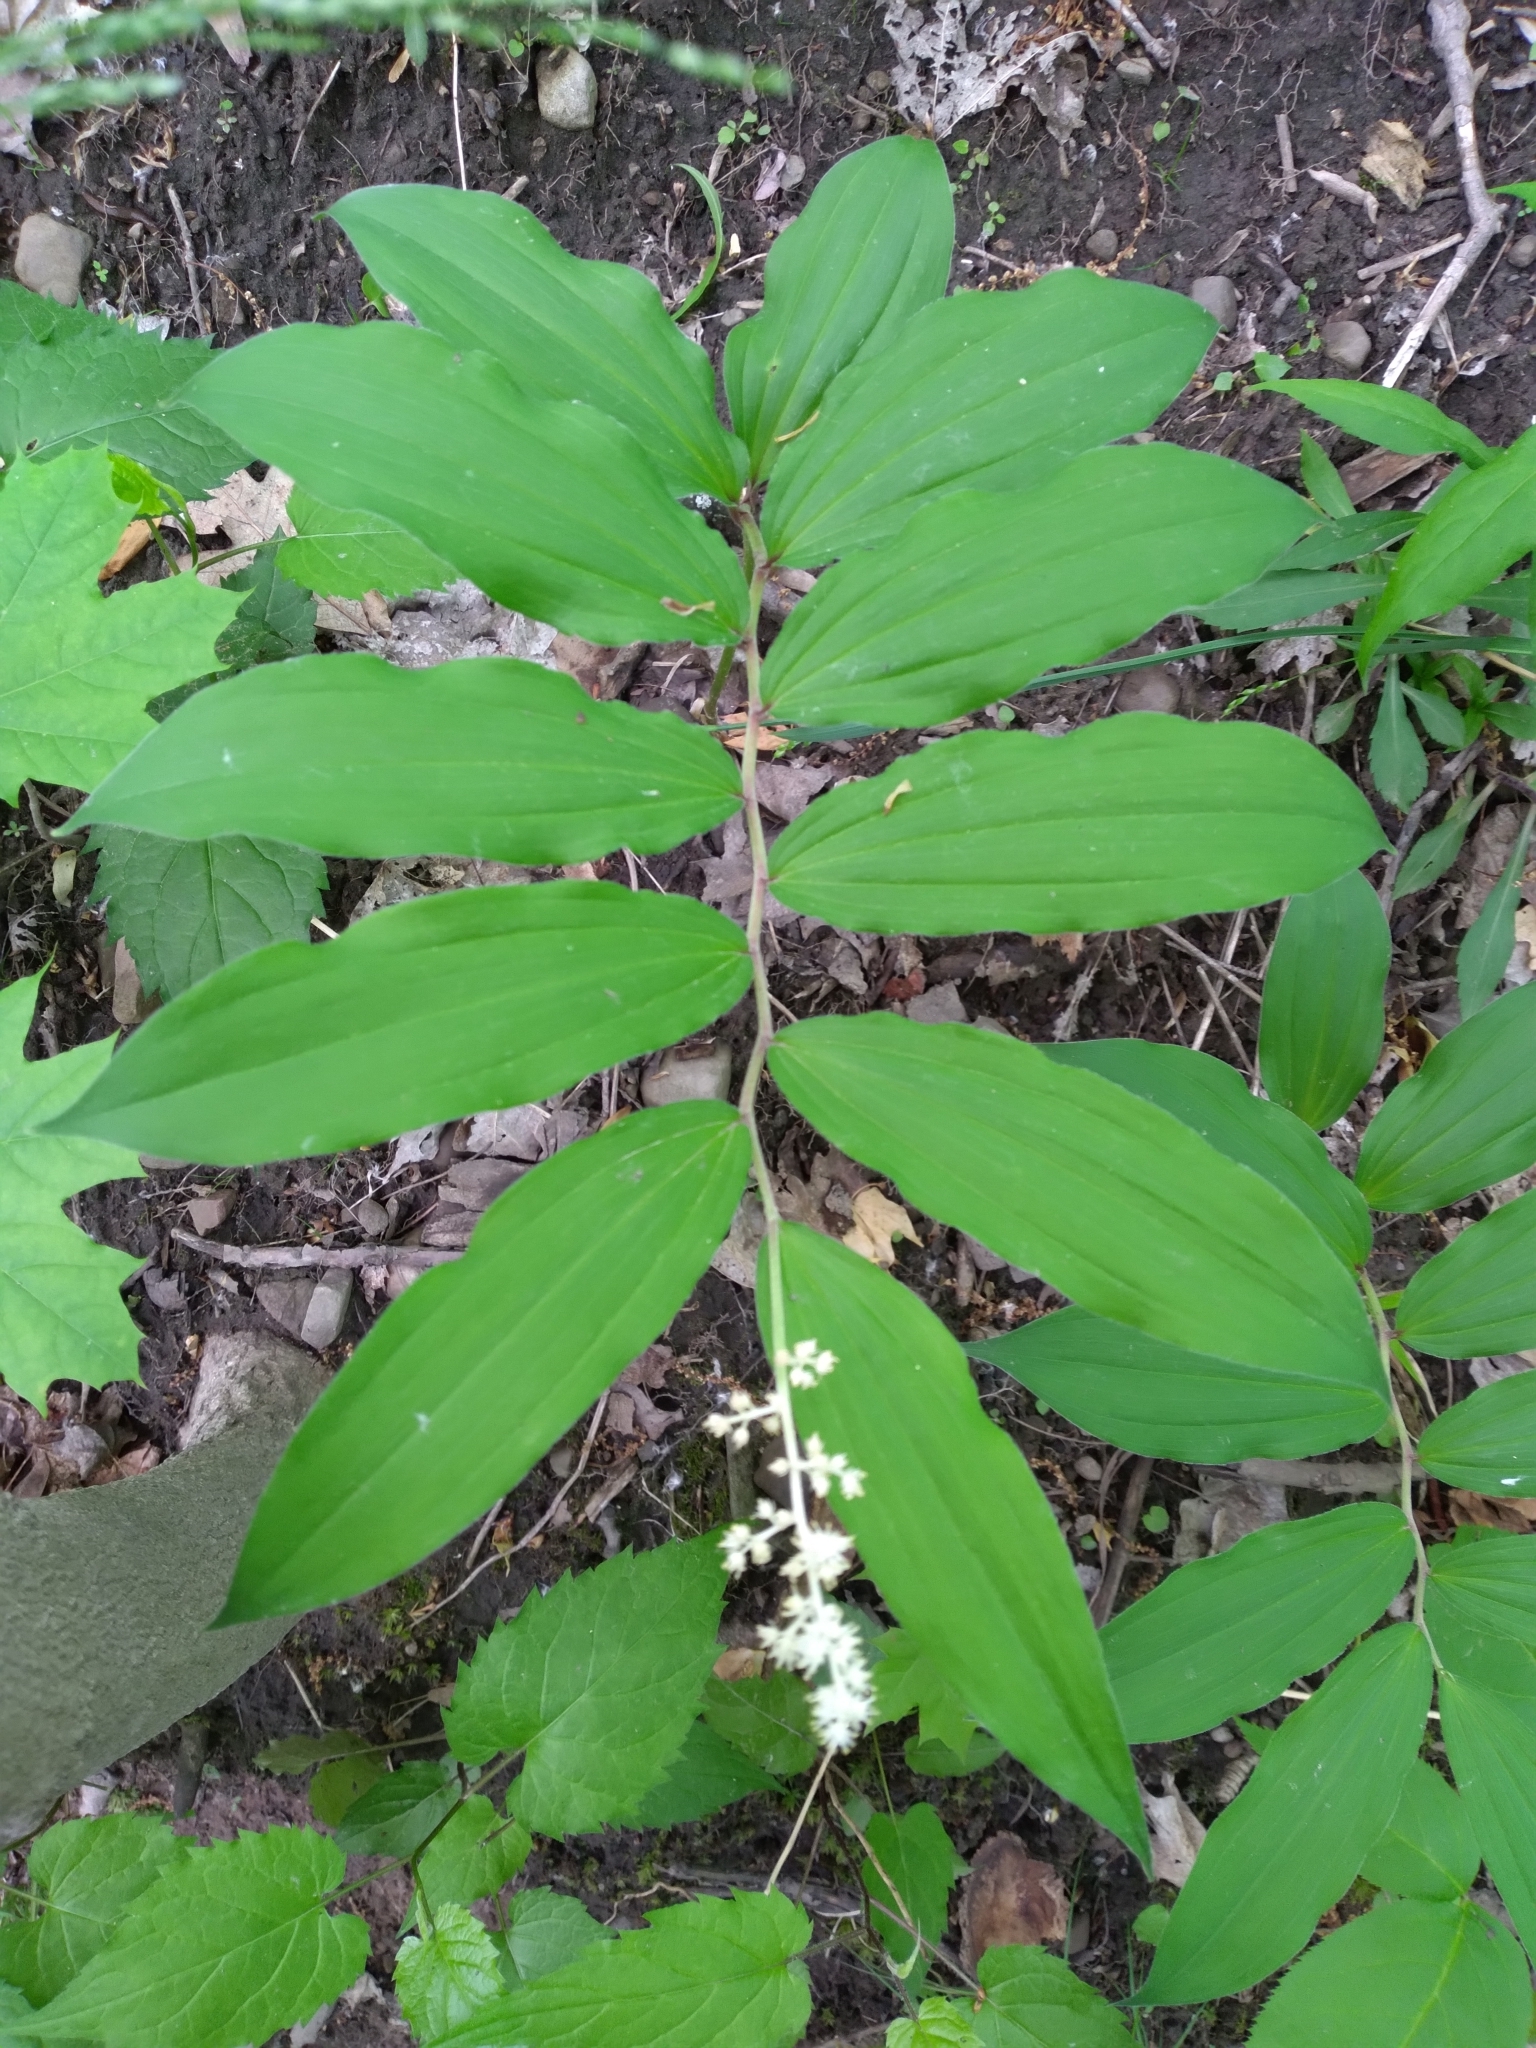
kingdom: Plantae
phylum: Tracheophyta
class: Liliopsida
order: Asparagales
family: Asparagaceae
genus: Maianthemum
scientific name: Maianthemum racemosum
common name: False spikenard
